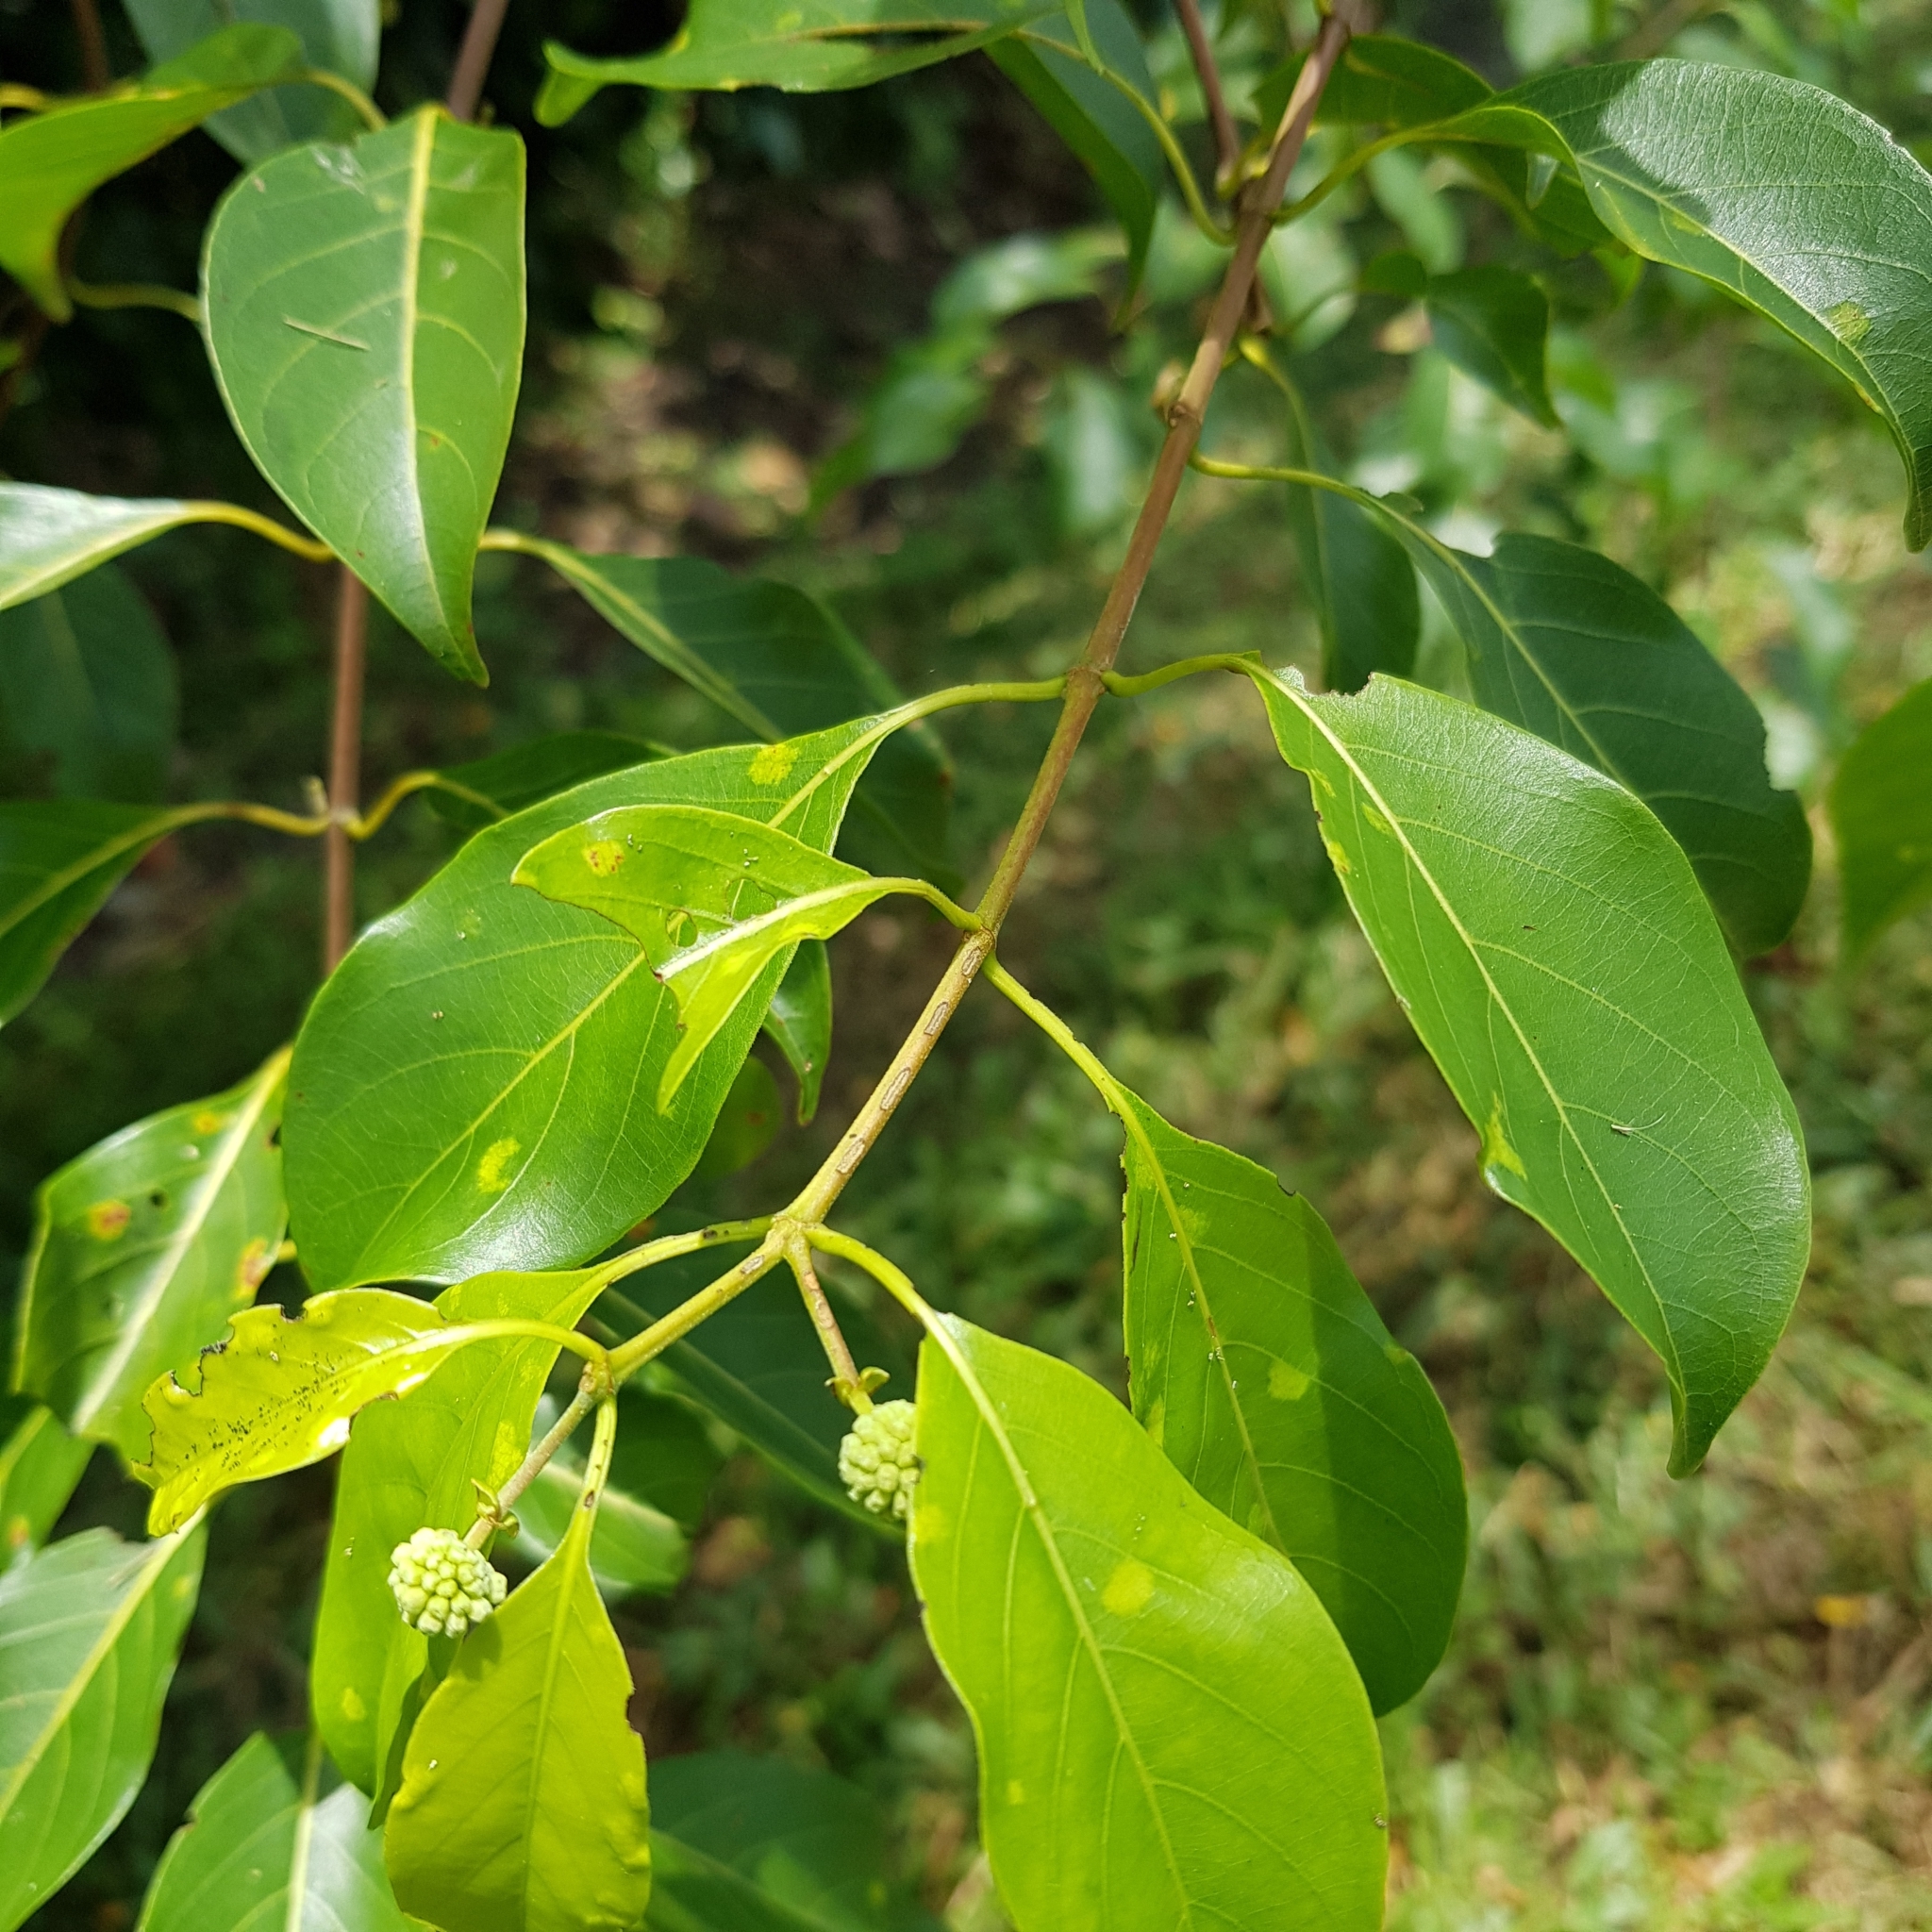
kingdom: Plantae
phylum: Tracheophyta
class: Magnoliopsida
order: Gentianales
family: Rubiaceae
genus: Uncaria
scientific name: Uncaria gambir
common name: Pale catechu
